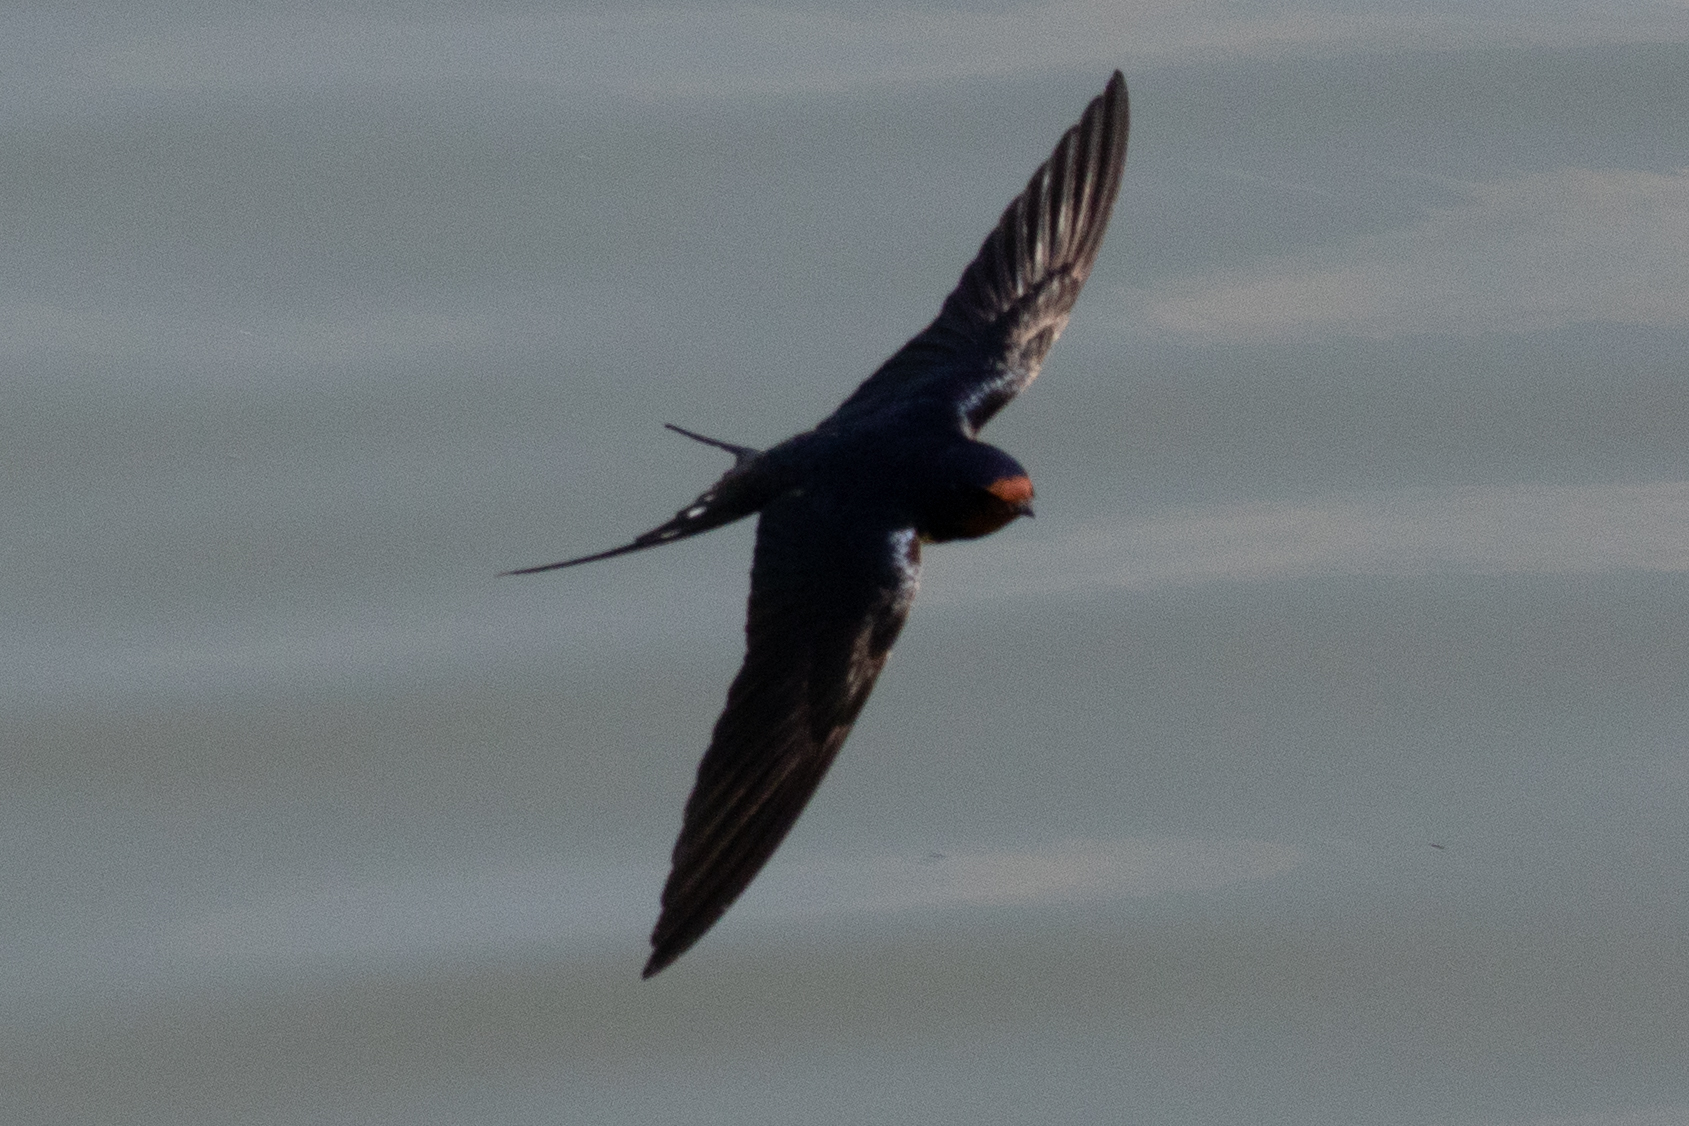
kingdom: Animalia
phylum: Chordata
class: Aves
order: Passeriformes
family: Hirundinidae
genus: Hirundo
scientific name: Hirundo rustica
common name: Barn swallow
